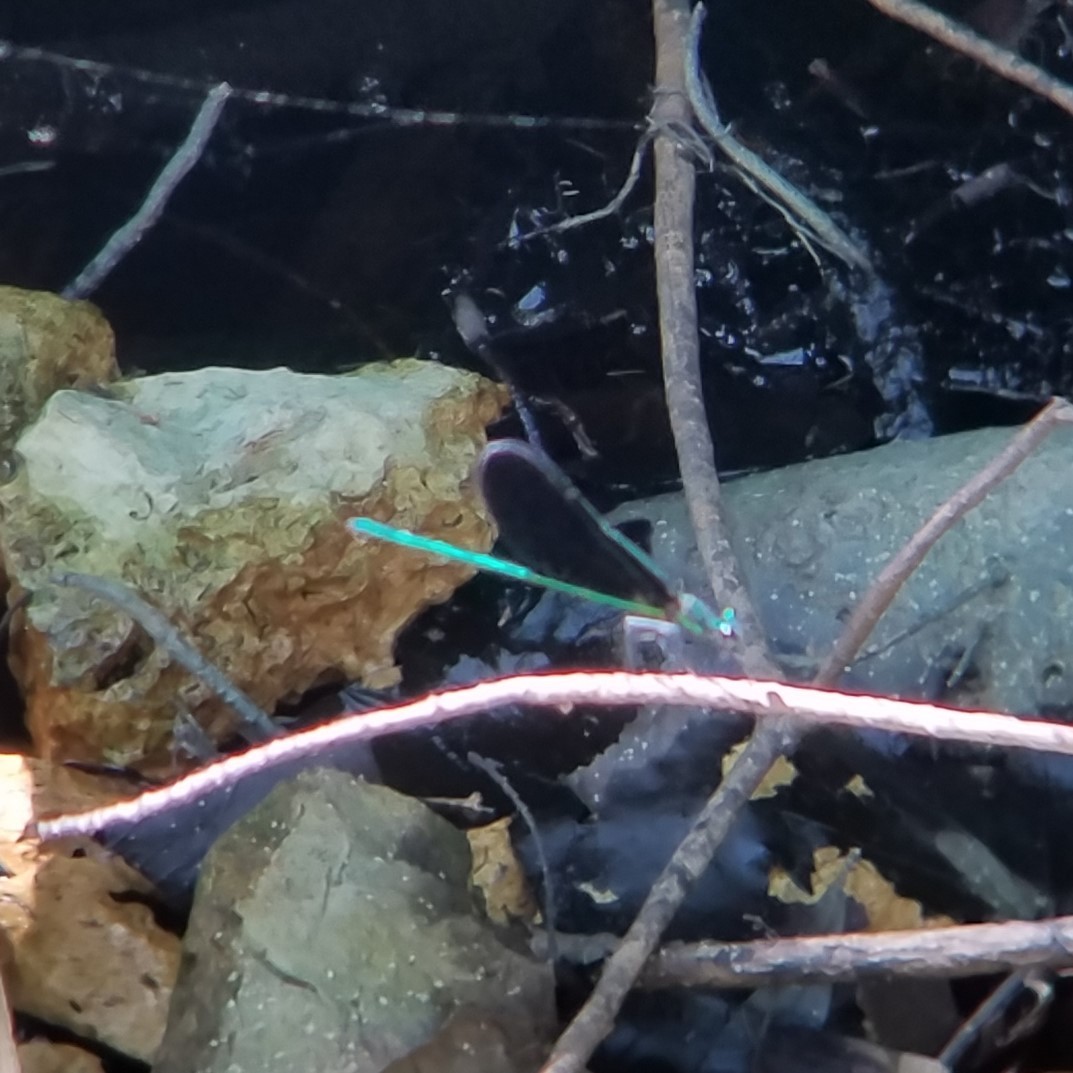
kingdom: Animalia
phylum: Arthropoda
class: Insecta
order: Odonata
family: Calopterygidae
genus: Calopteryx
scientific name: Calopteryx maculata
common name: Ebony jewelwing
